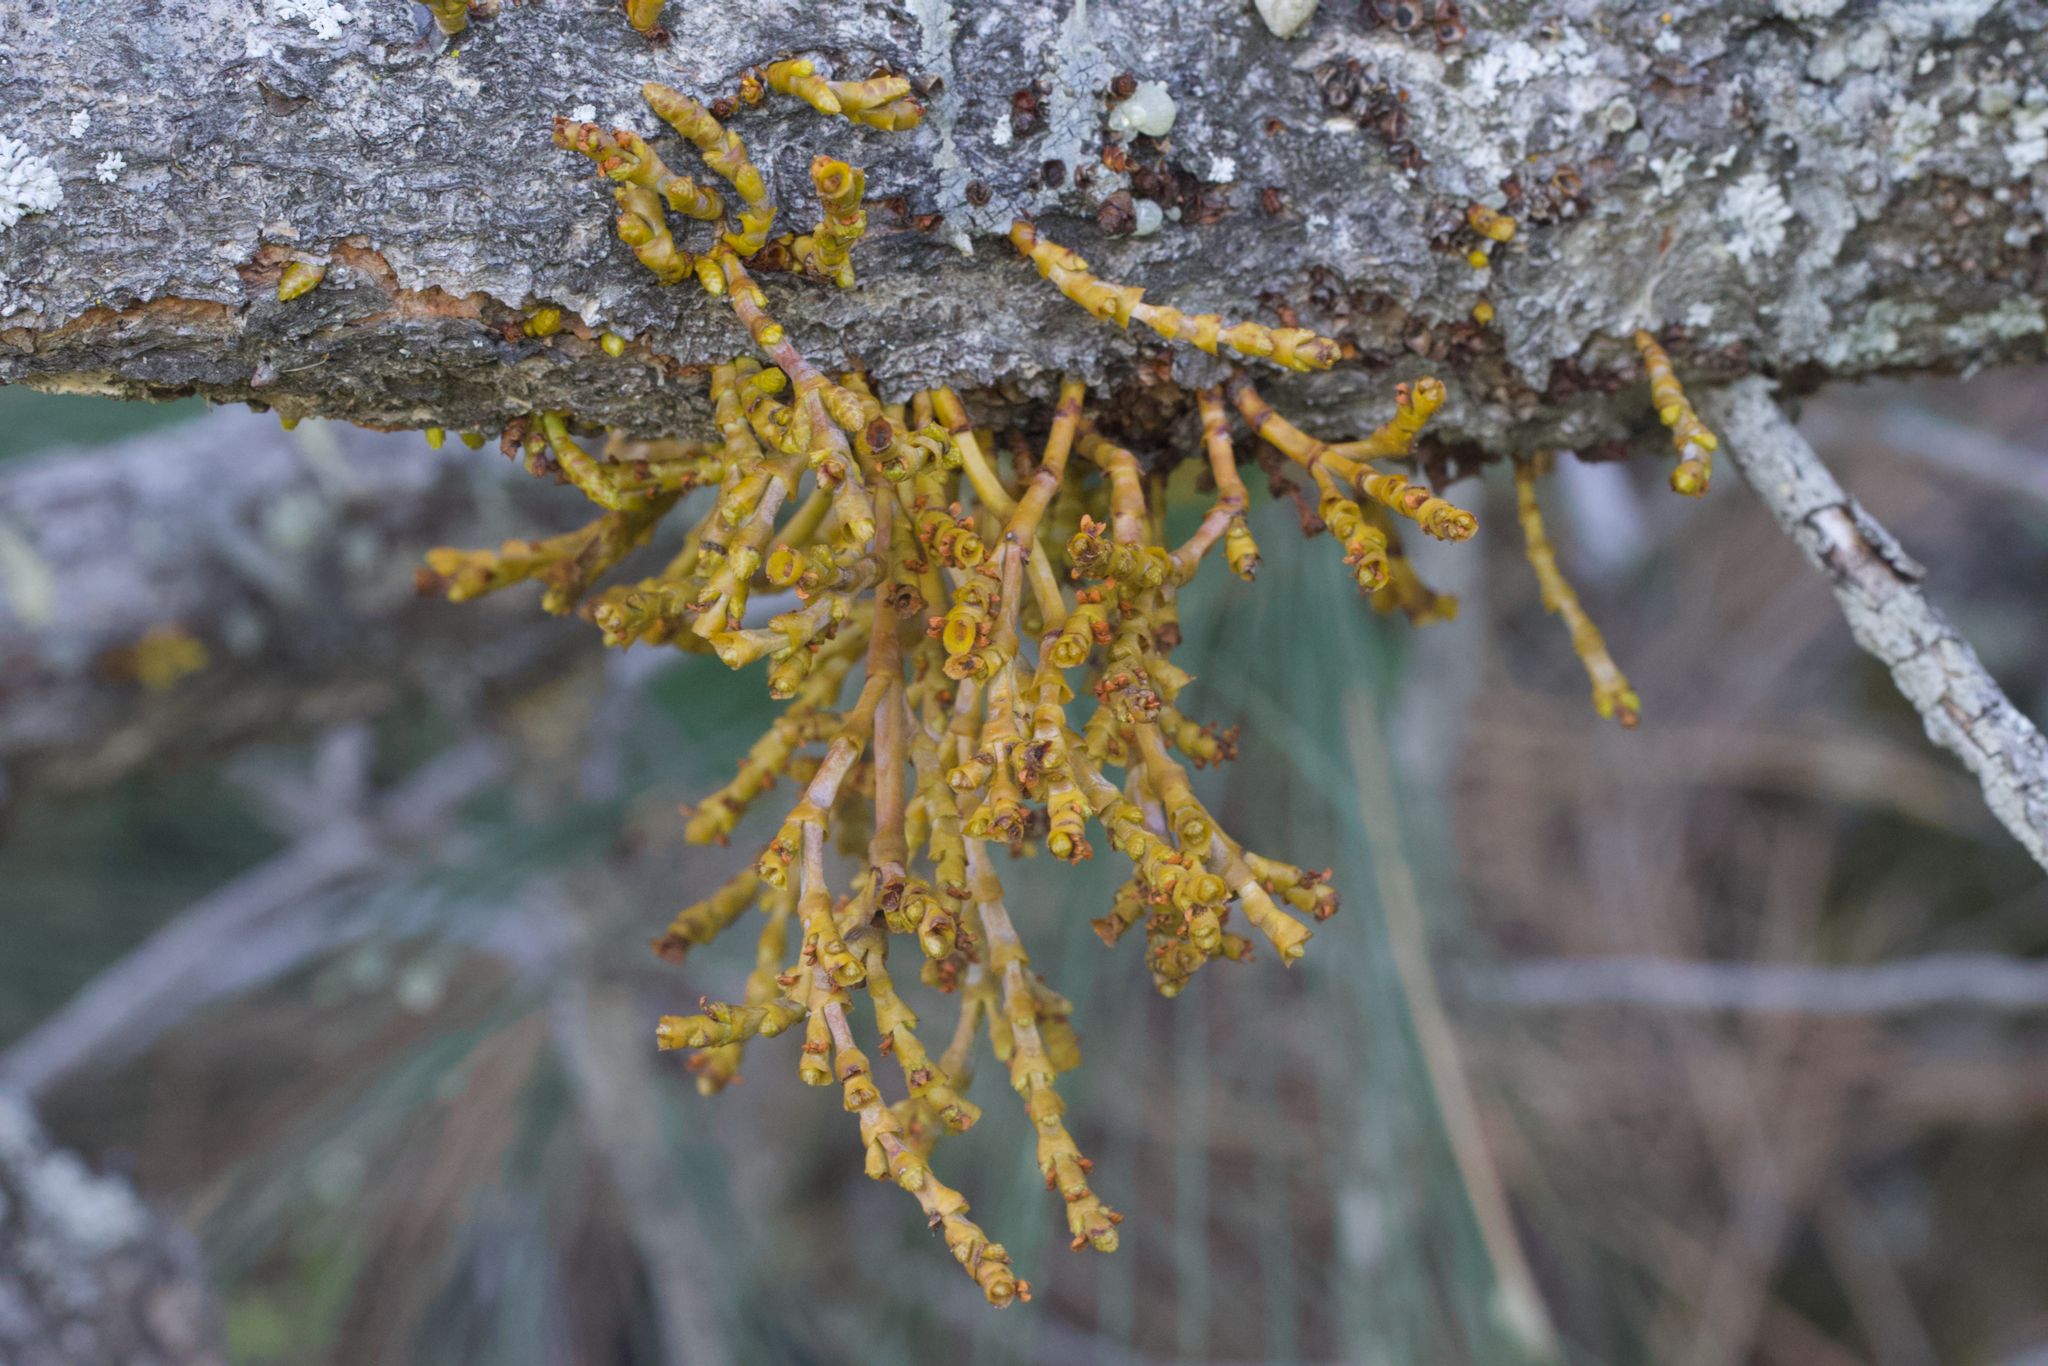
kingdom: Plantae
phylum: Tracheophyta
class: Magnoliopsida
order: Santalales
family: Viscaceae
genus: Arceuthobium
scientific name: Arceuthobium campylopodum
